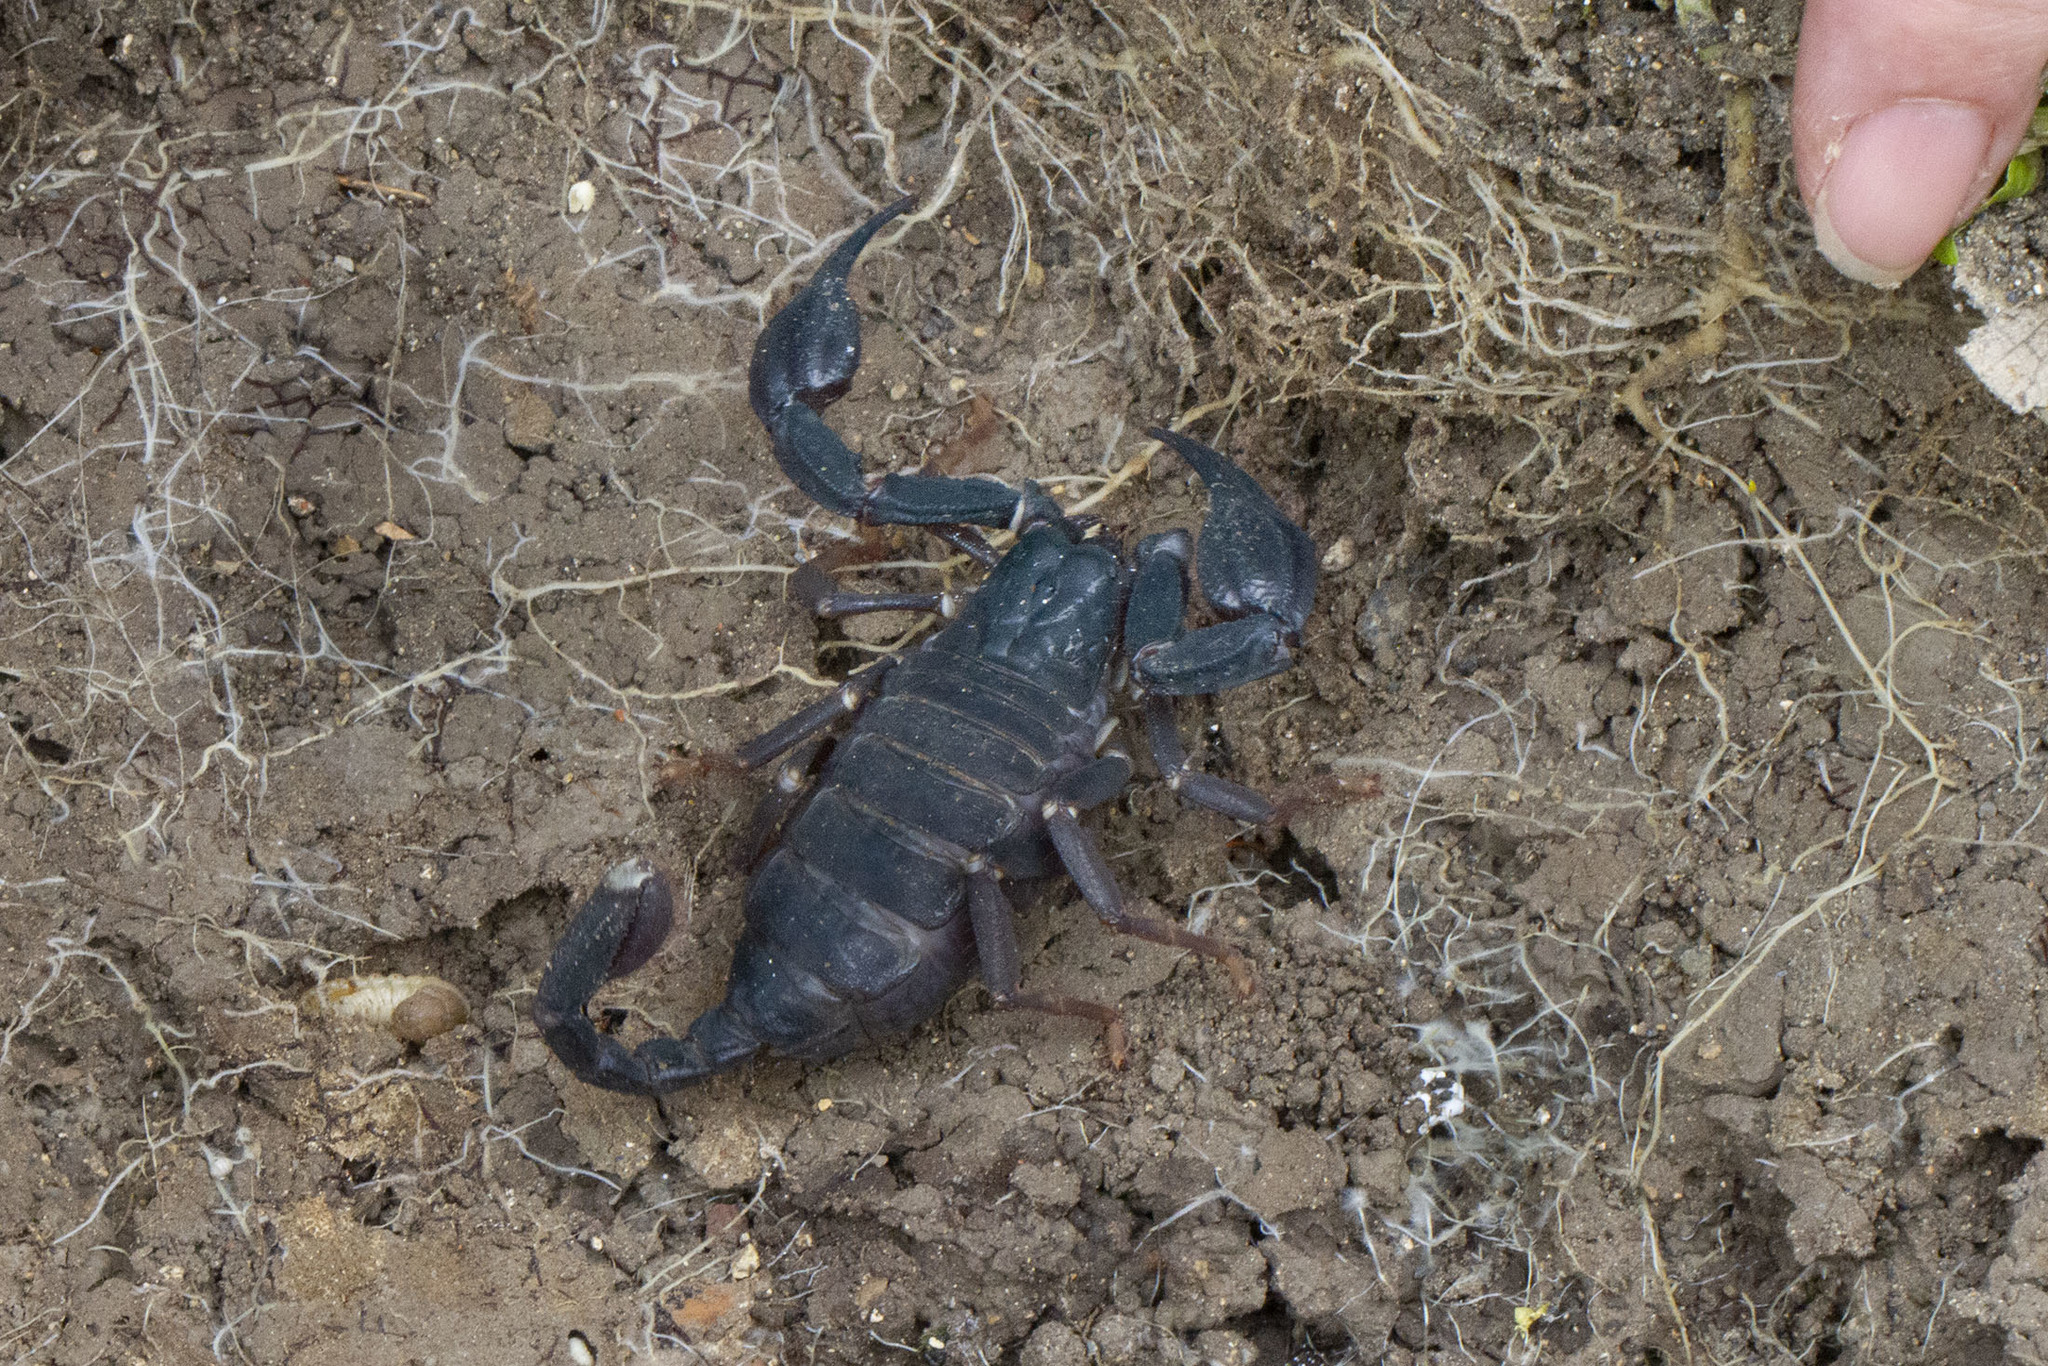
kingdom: Animalia
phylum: Arthropoda
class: Arachnida
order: Scorpiones
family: Iuridae
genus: Anatoliurus
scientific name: Anatoliurus kraepelini
